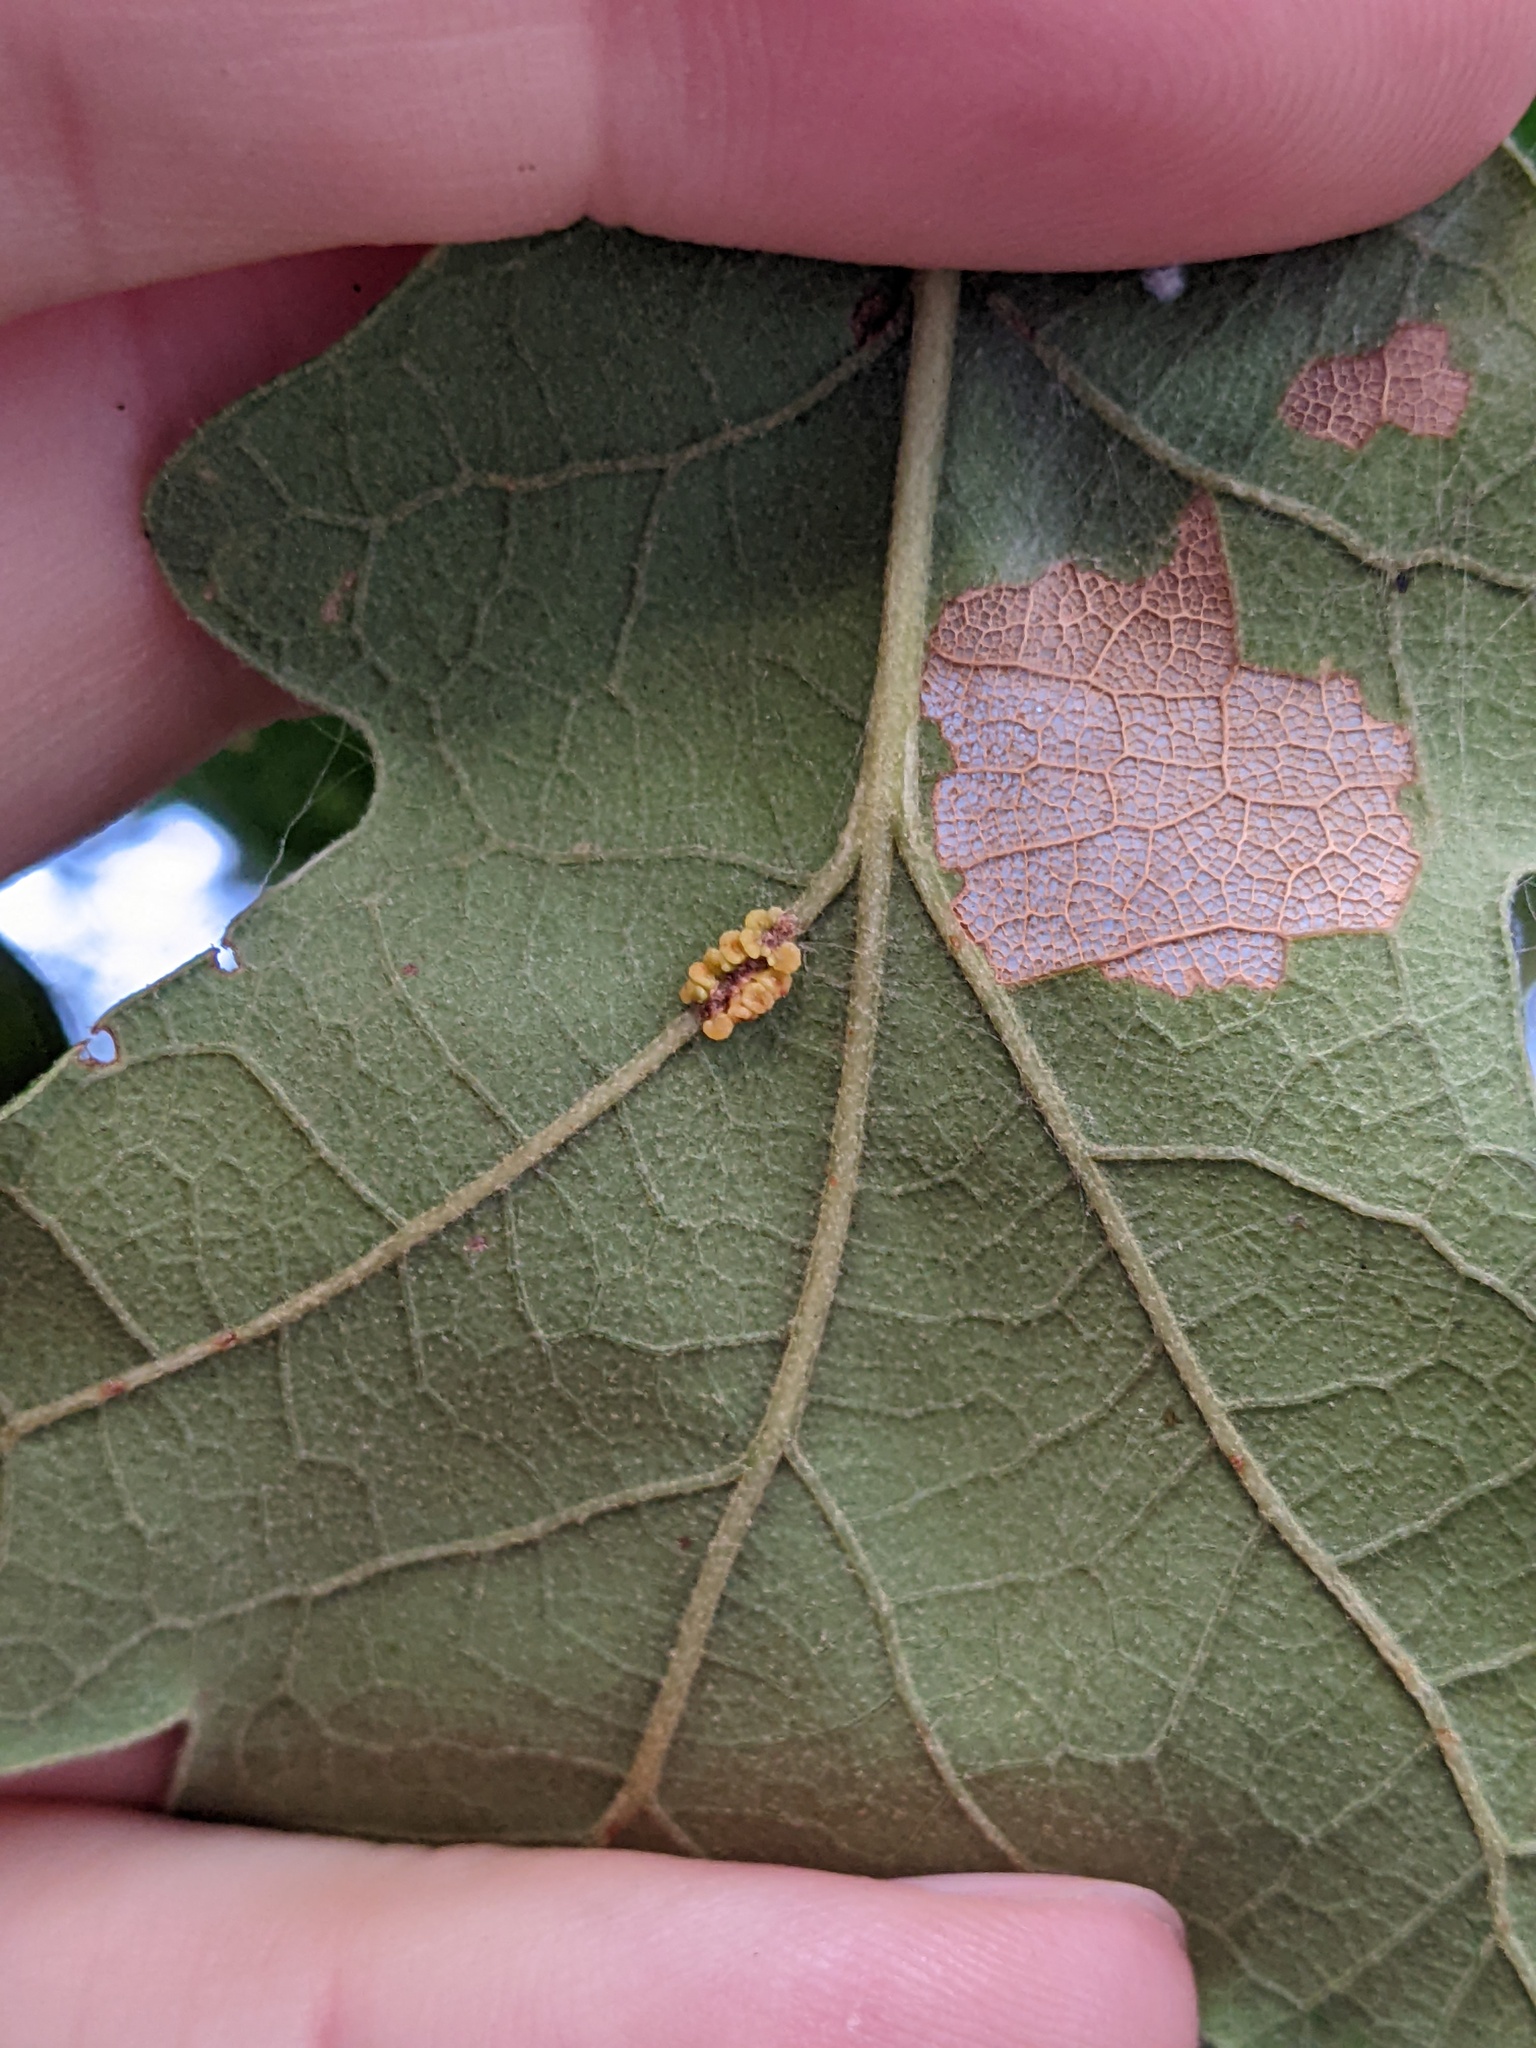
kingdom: Animalia
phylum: Arthropoda
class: Insecta
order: Hymenoptera
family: Cynipidae
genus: Andricus
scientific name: Andricus lustrans
